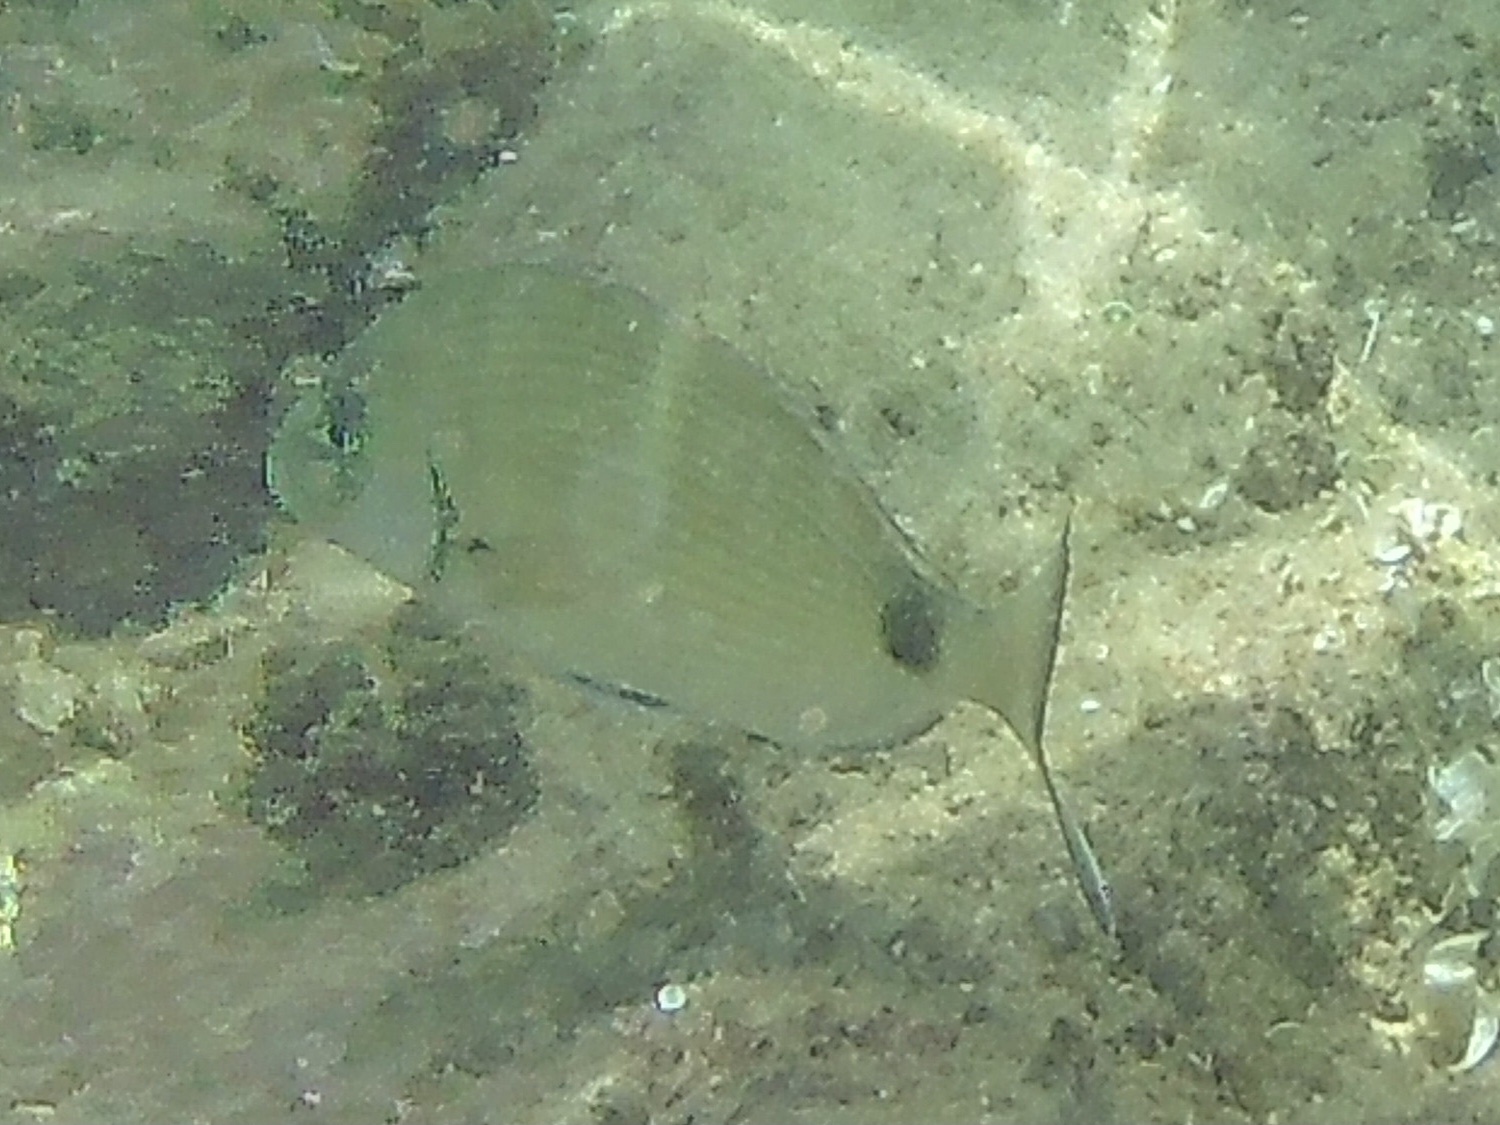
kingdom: Animalia
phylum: Chordata
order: Perciformes
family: Sparidae
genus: Diplodus
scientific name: Diplodus sargus
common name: White seabream
